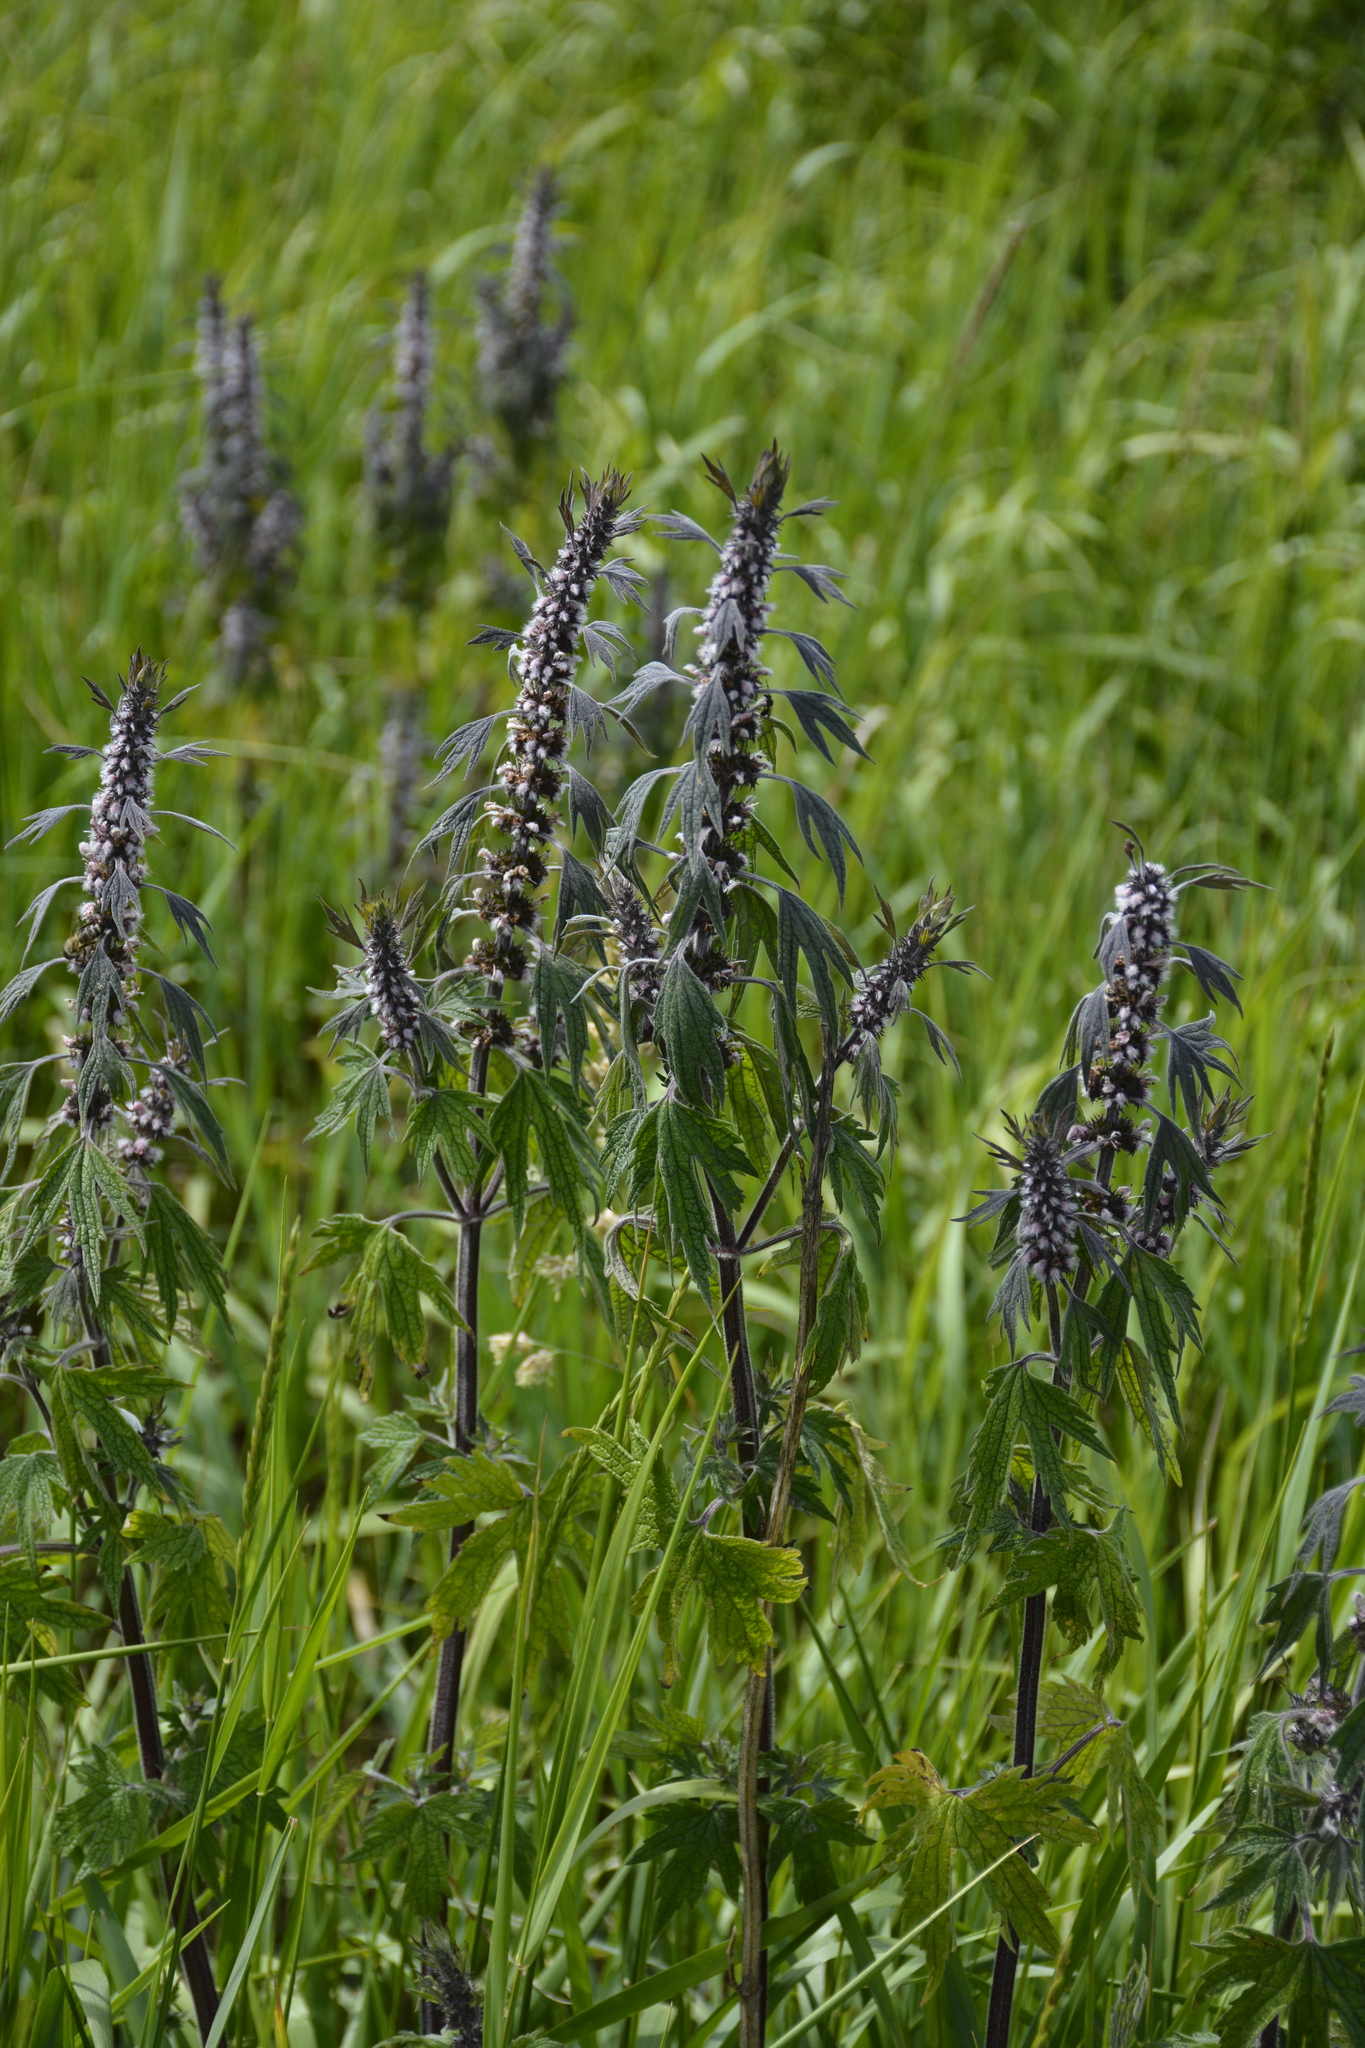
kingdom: Plantae
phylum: Tracheophyta
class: Magnoliopsida
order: Lamiales
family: Lamiaceae
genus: Leonurus
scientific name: Leonurus quinquelobatus
